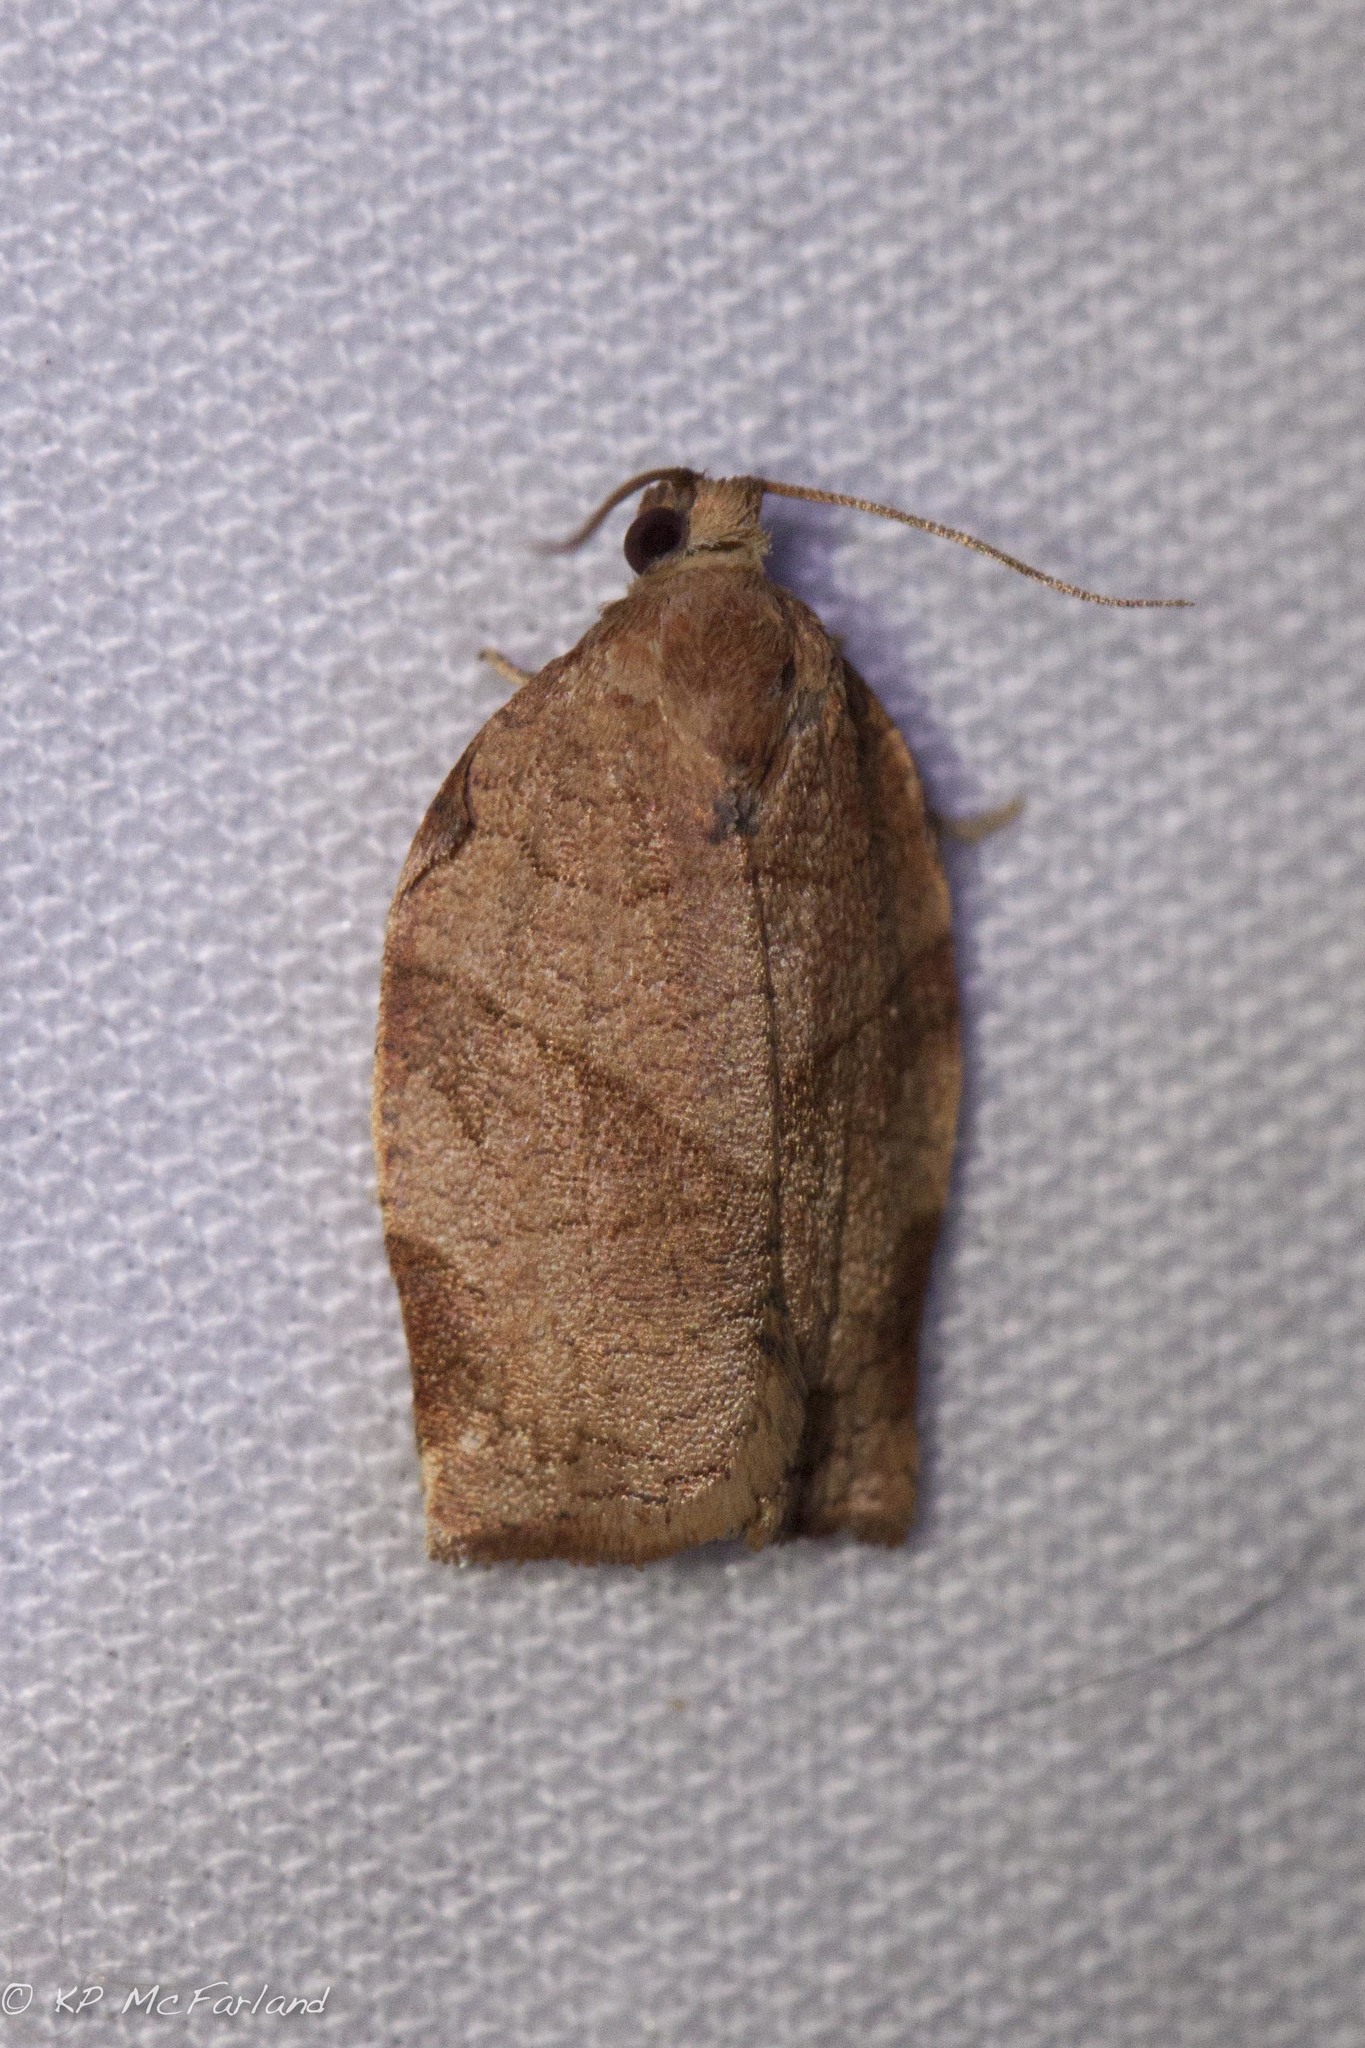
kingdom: Animalia
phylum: Arthropoda
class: Insecta
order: Lepidoptera
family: Tortricidae
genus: Choristoneura
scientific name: Choristoneura rosaceana
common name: Oblique-banded leafroller moth
